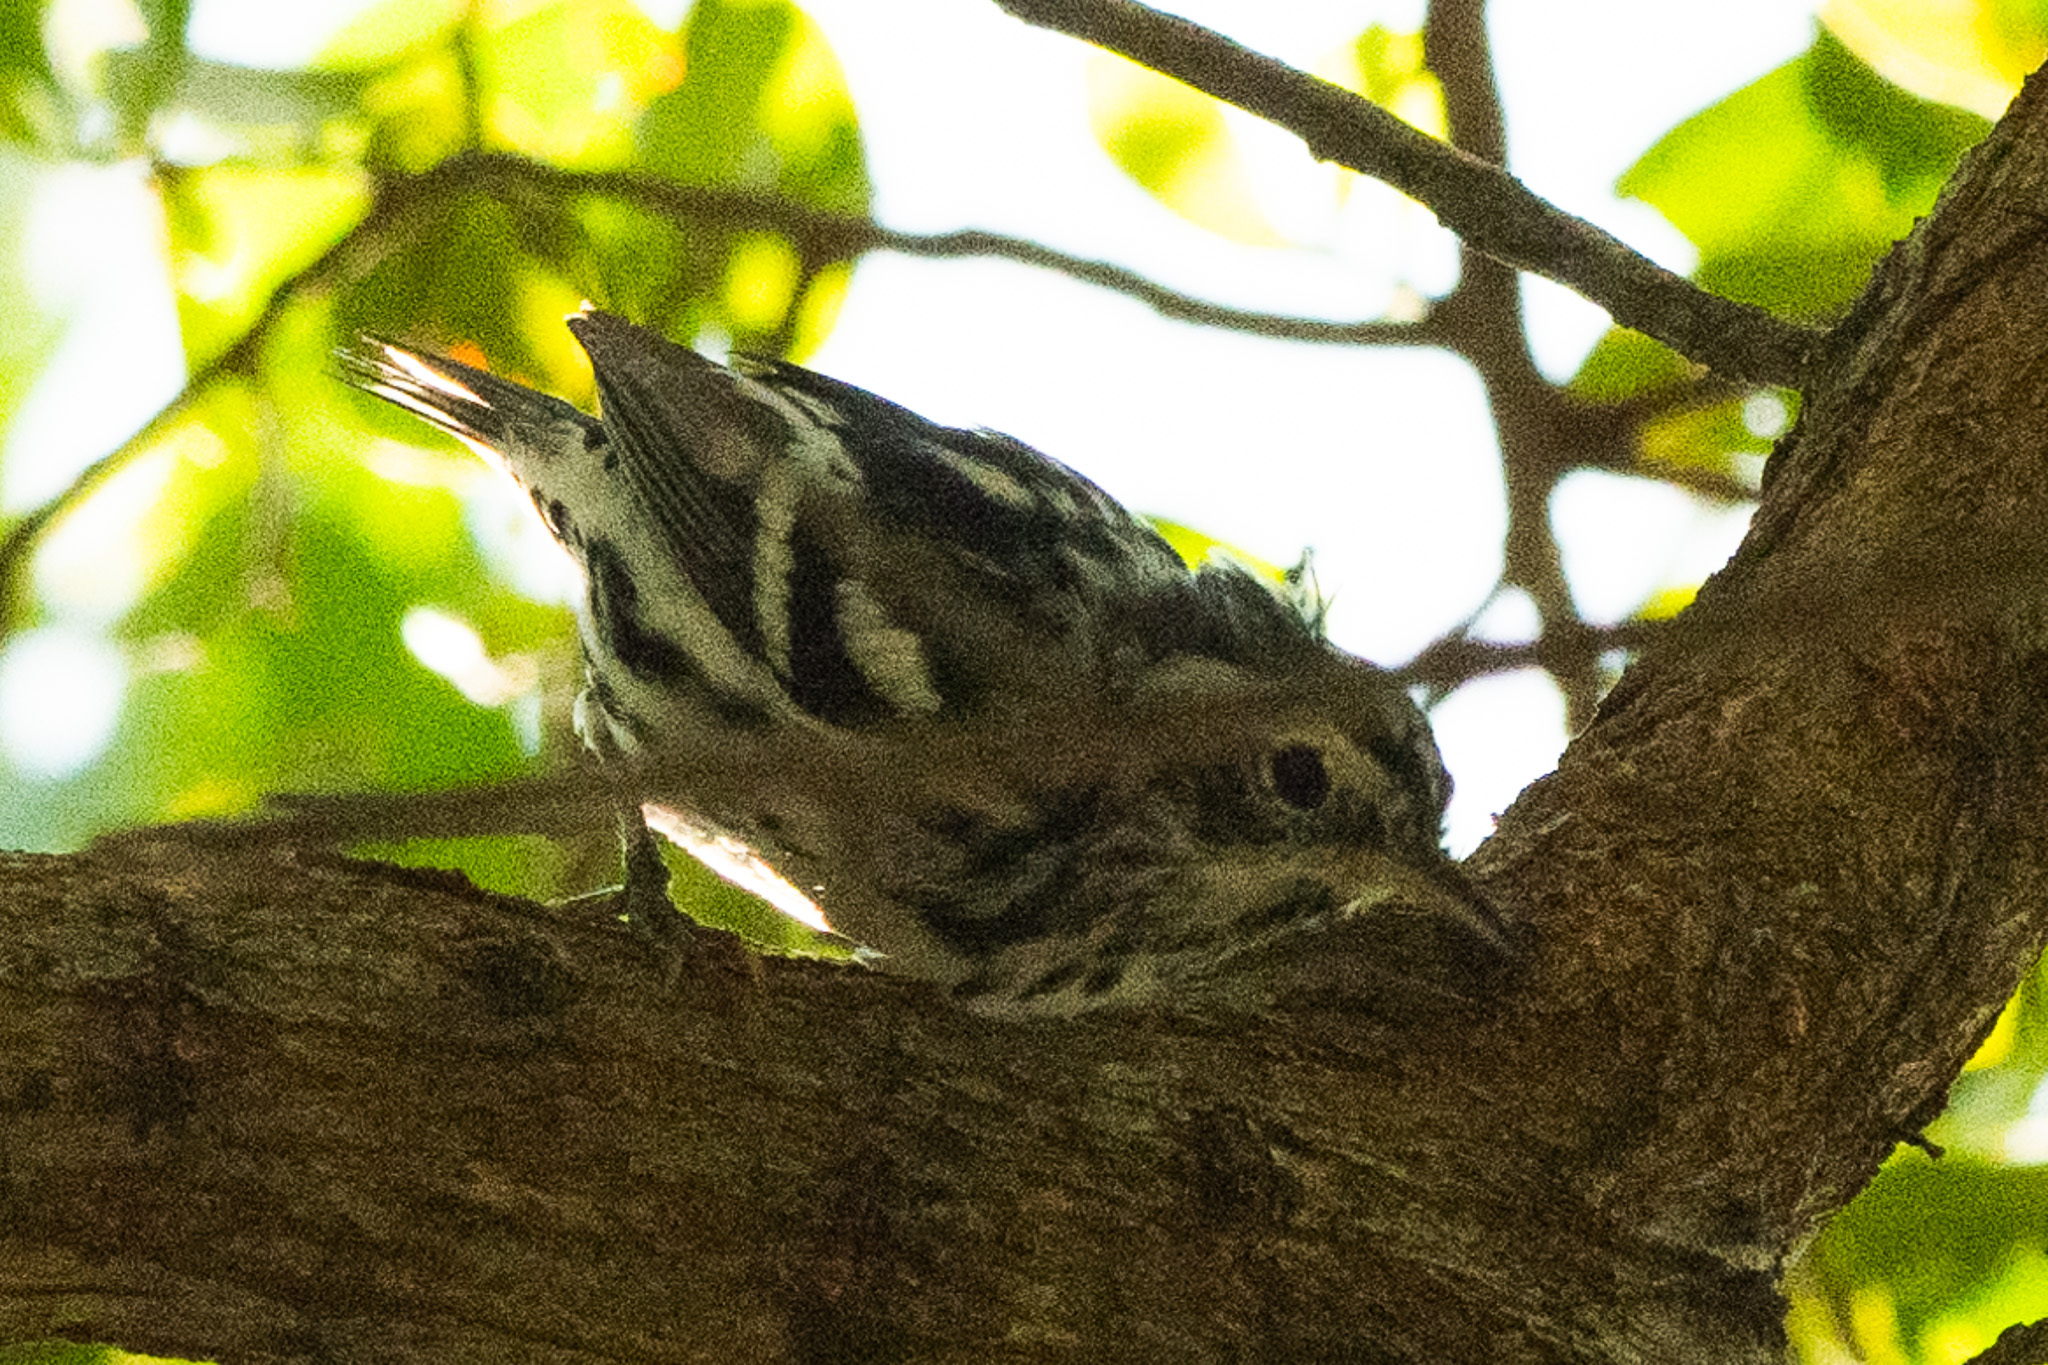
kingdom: Animalia
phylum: Chordata
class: Aves
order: Passeriformes
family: Parulidae
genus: Mniotilta
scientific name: Mniotilta varia
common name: Black-and-white warbler
